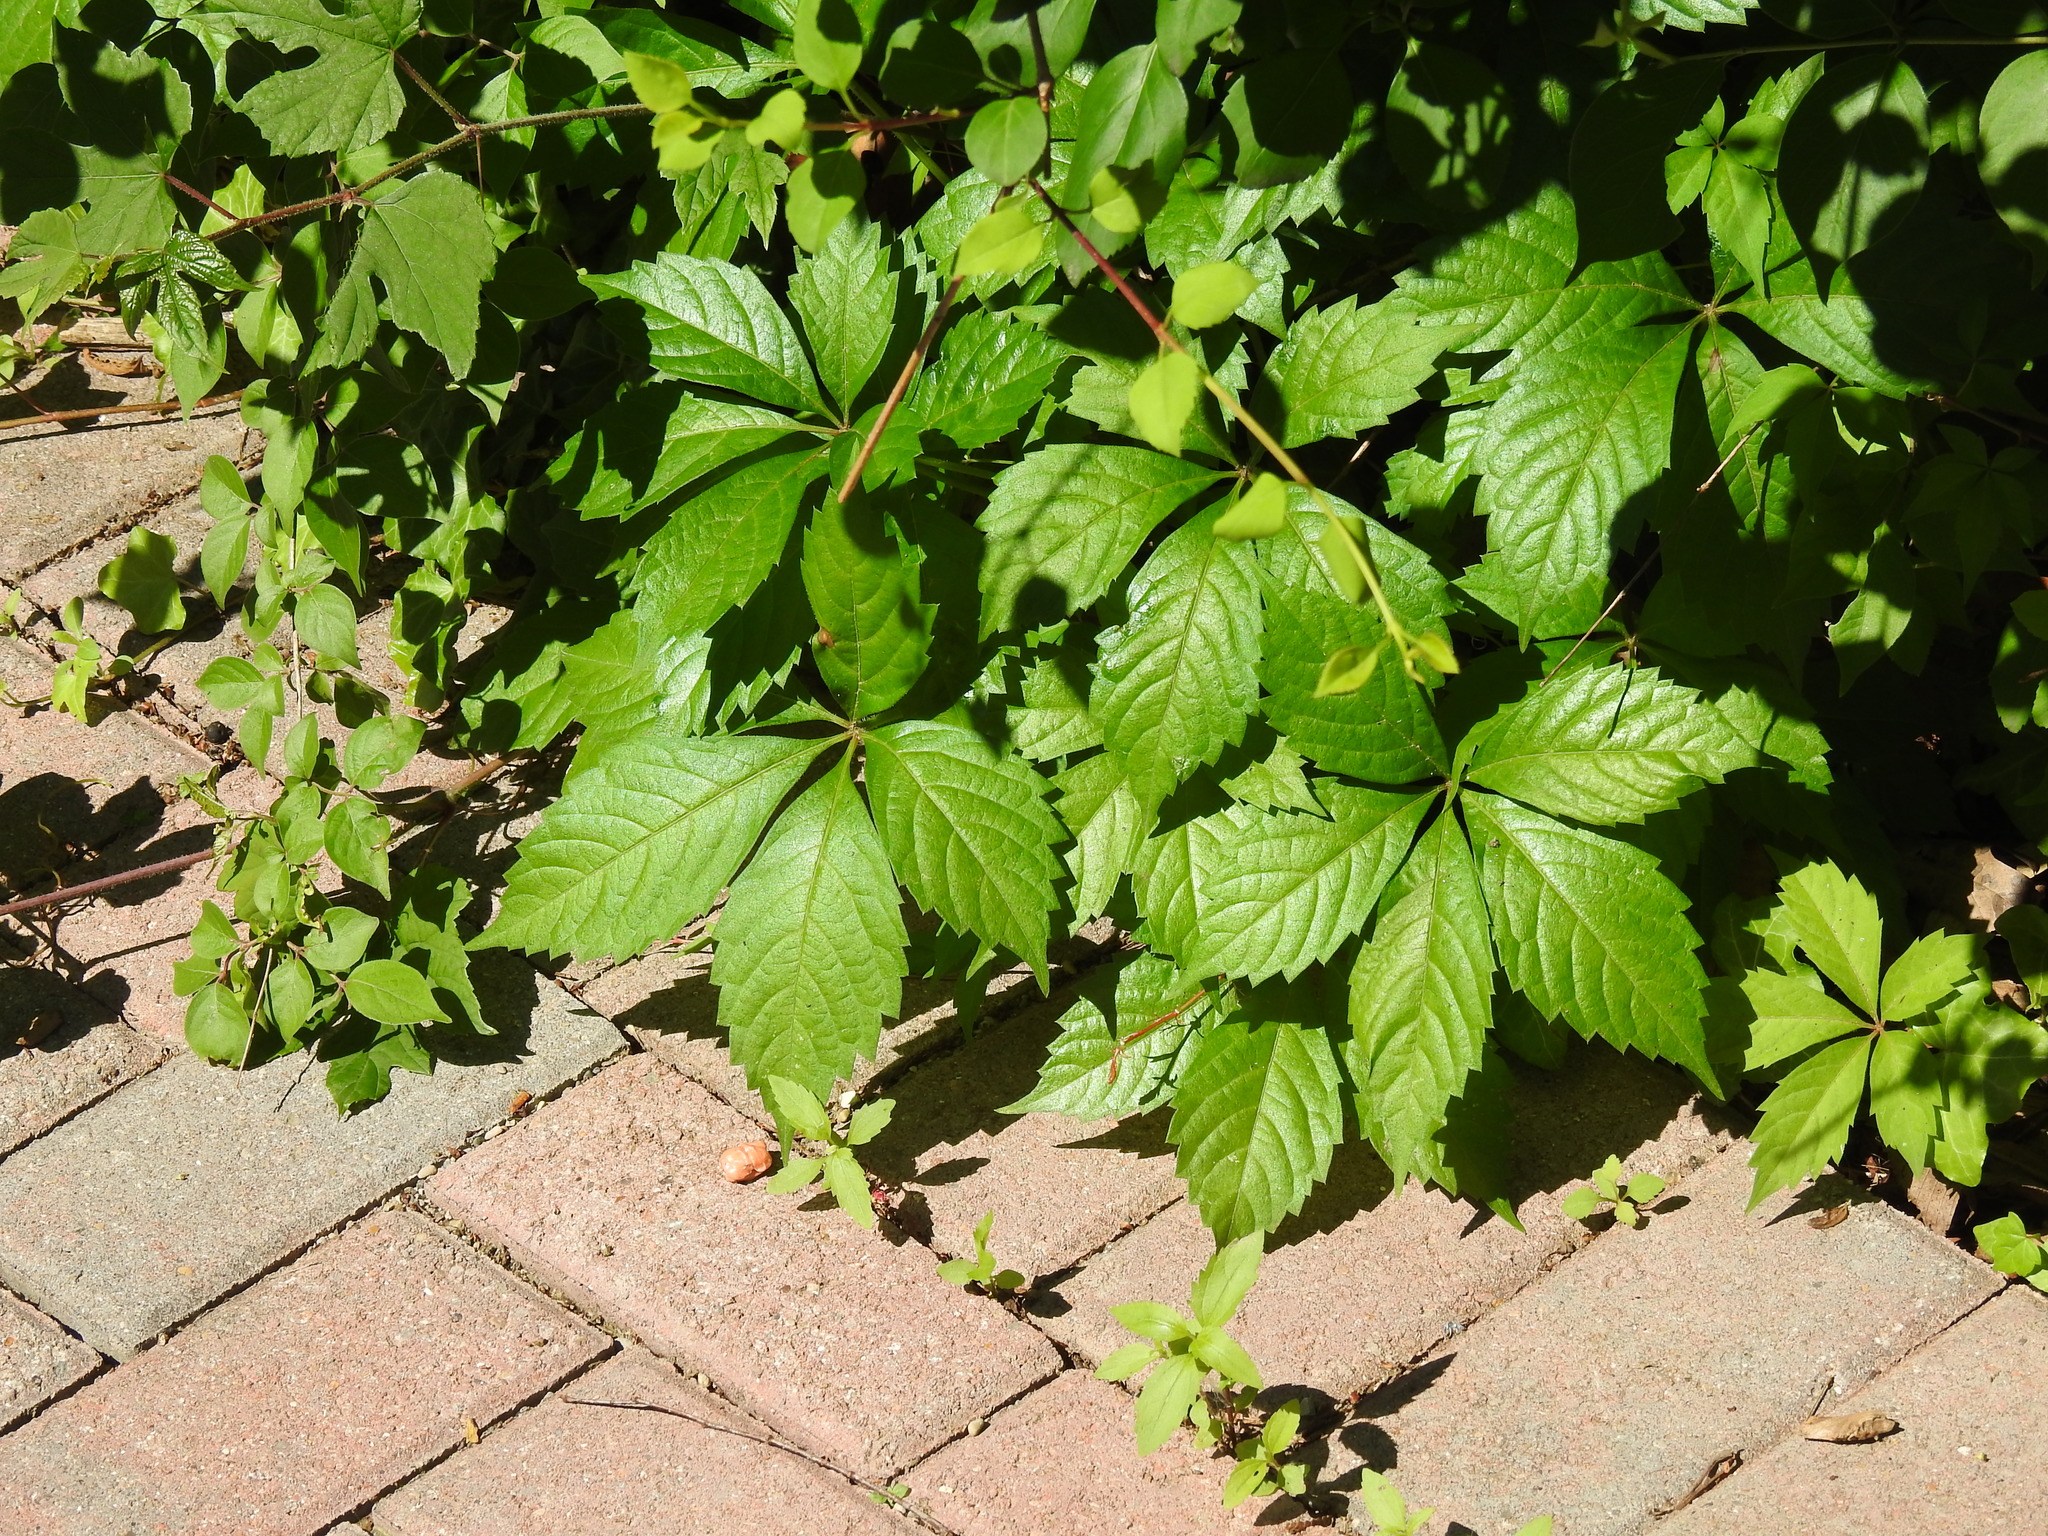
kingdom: Plantae
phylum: Tracheophyta
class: Magnoliopsida
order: Vitales
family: Vitaceae
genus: Parthenocissus
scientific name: Parthenocissus quinquefolia
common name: Virginia-creeper
